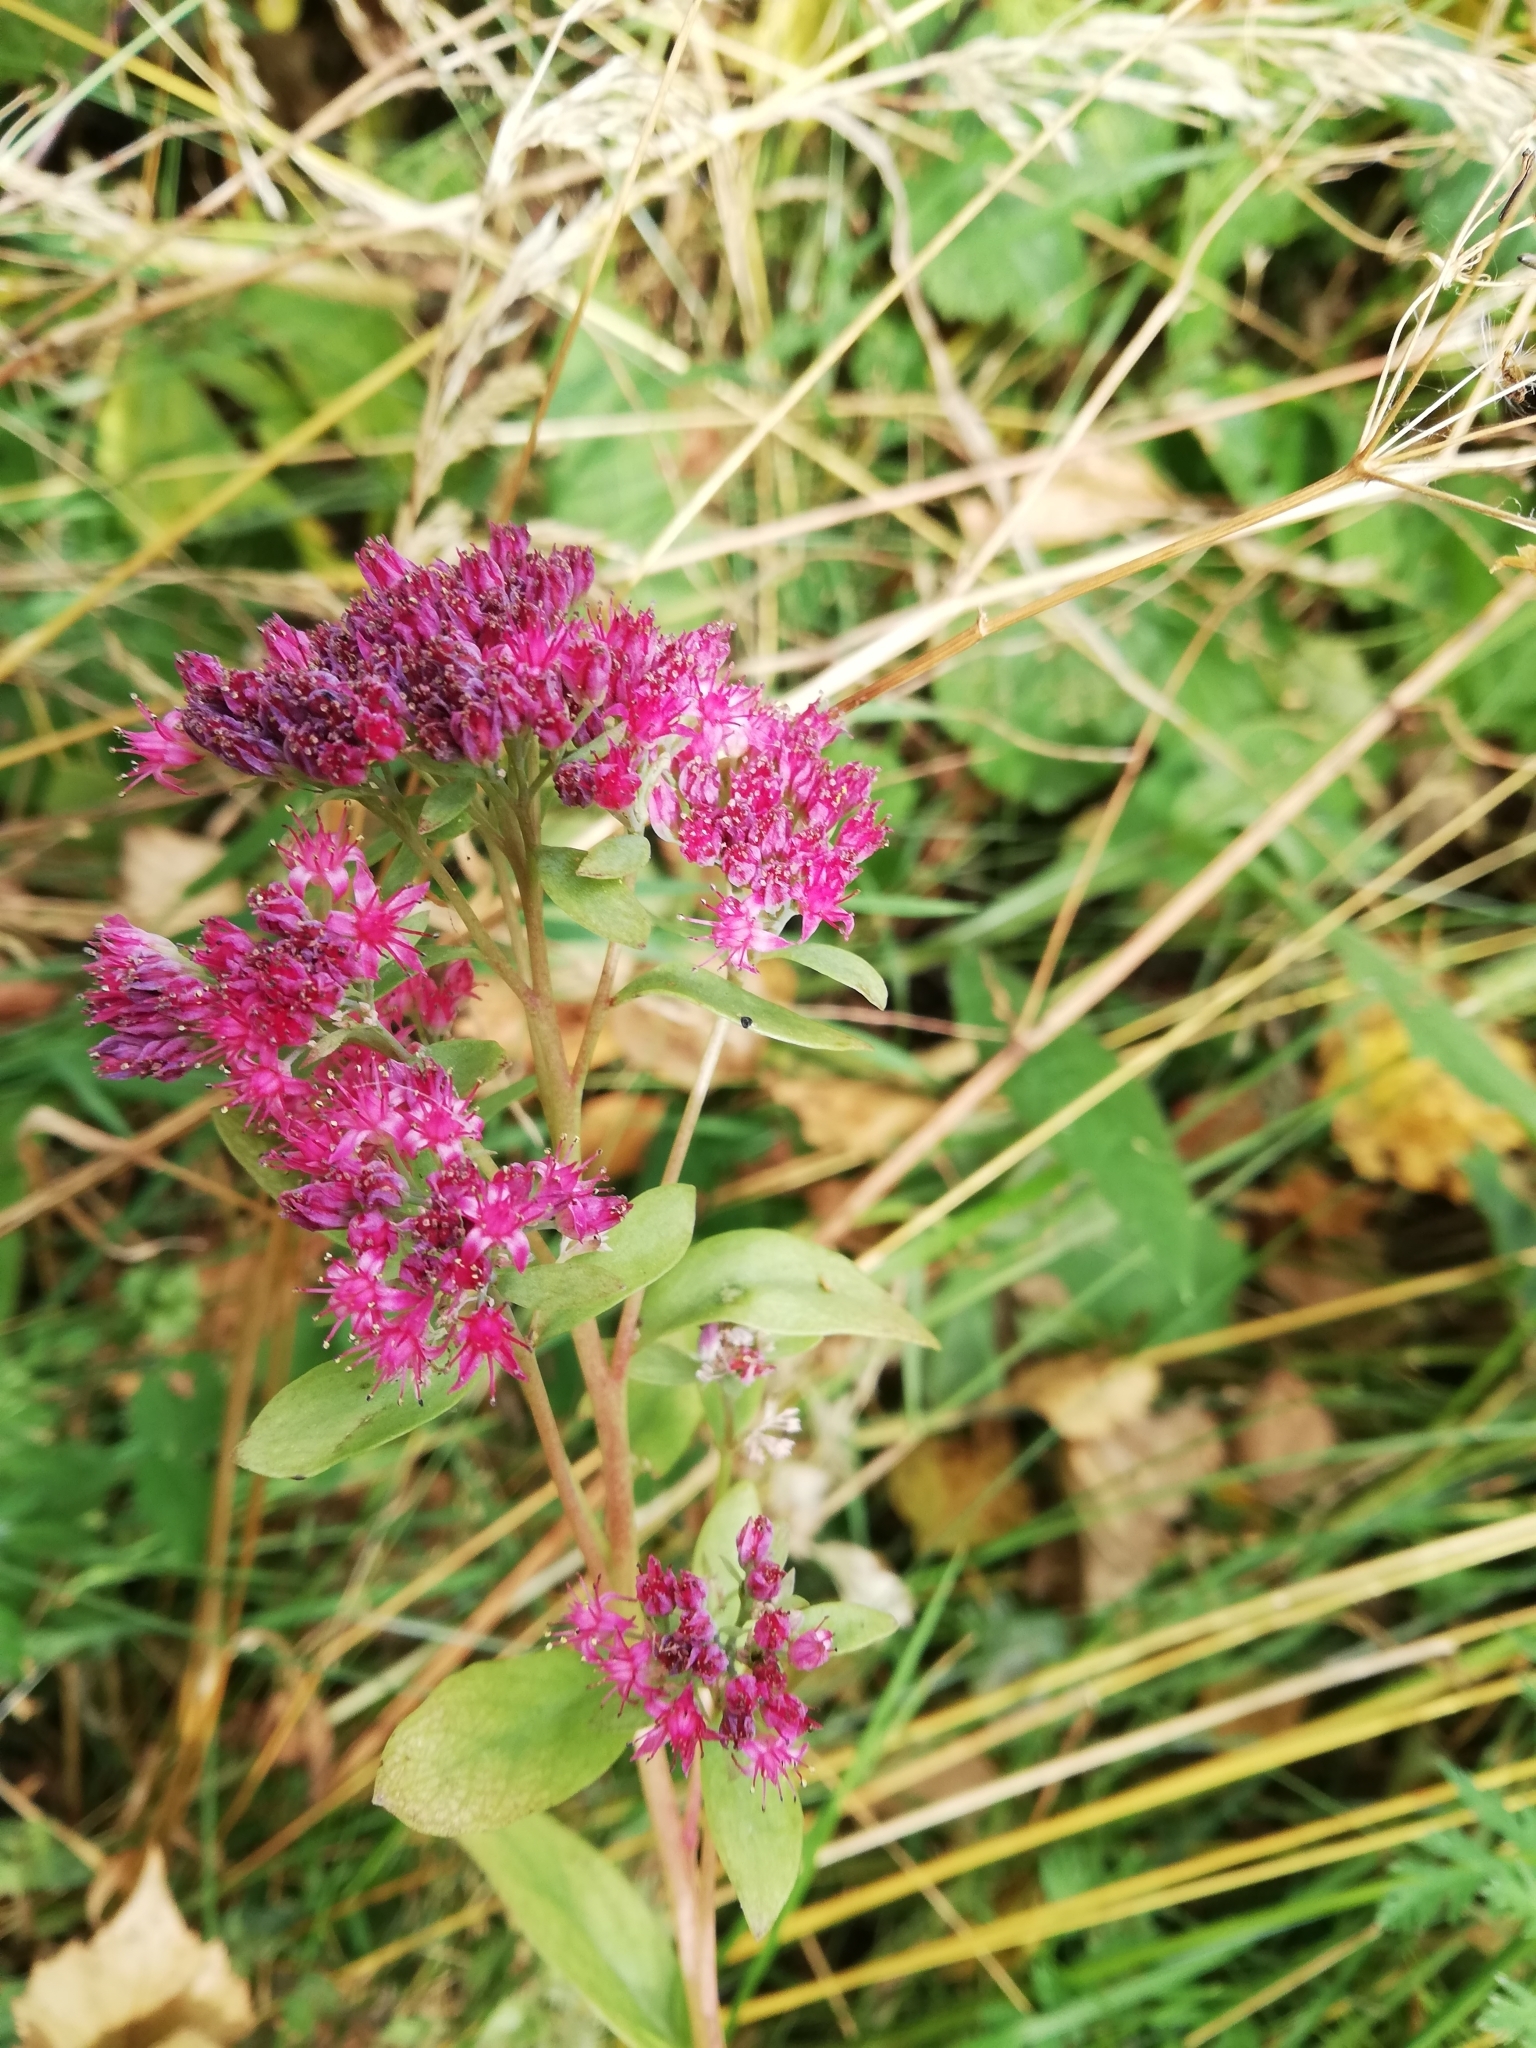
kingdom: Plantae
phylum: Tracheophyta
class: Magnoliopsida
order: Saxifragales
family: Crassulaceae
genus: Hylotelephium
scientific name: Hylotelephium telephium
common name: Live-forever
